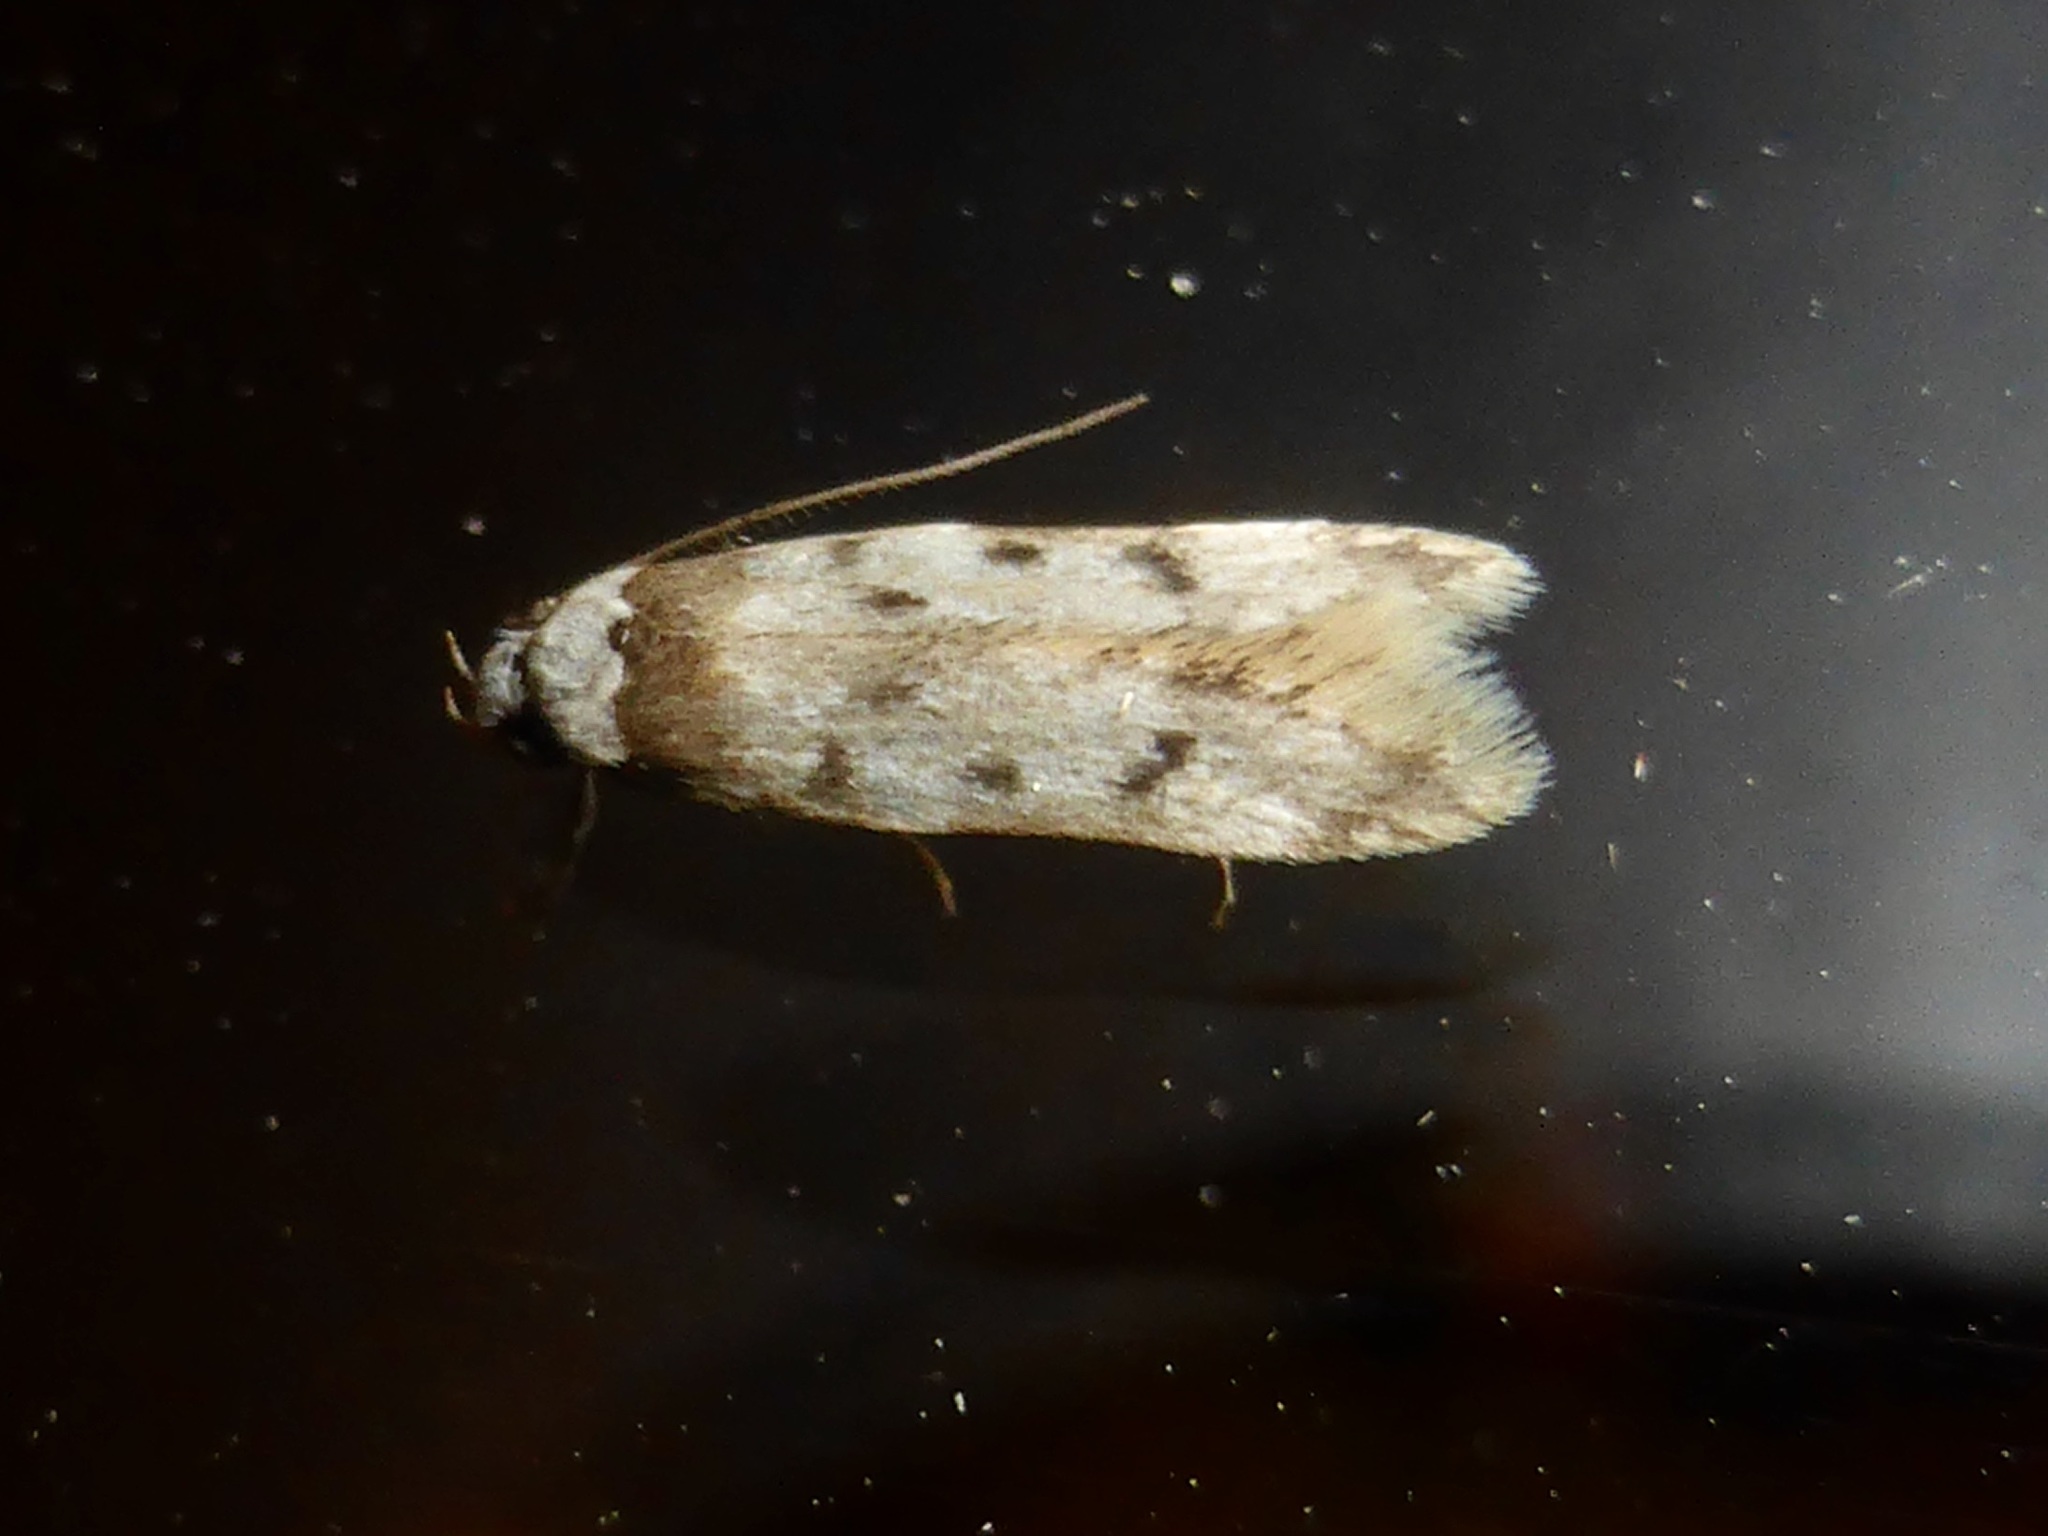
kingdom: Animalia
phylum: Arthropoda
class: Insecta
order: Lepidoptera
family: Oecophoridae
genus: Endrosis
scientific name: Endrosis sarcitrella
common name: White-shouldered house moth
